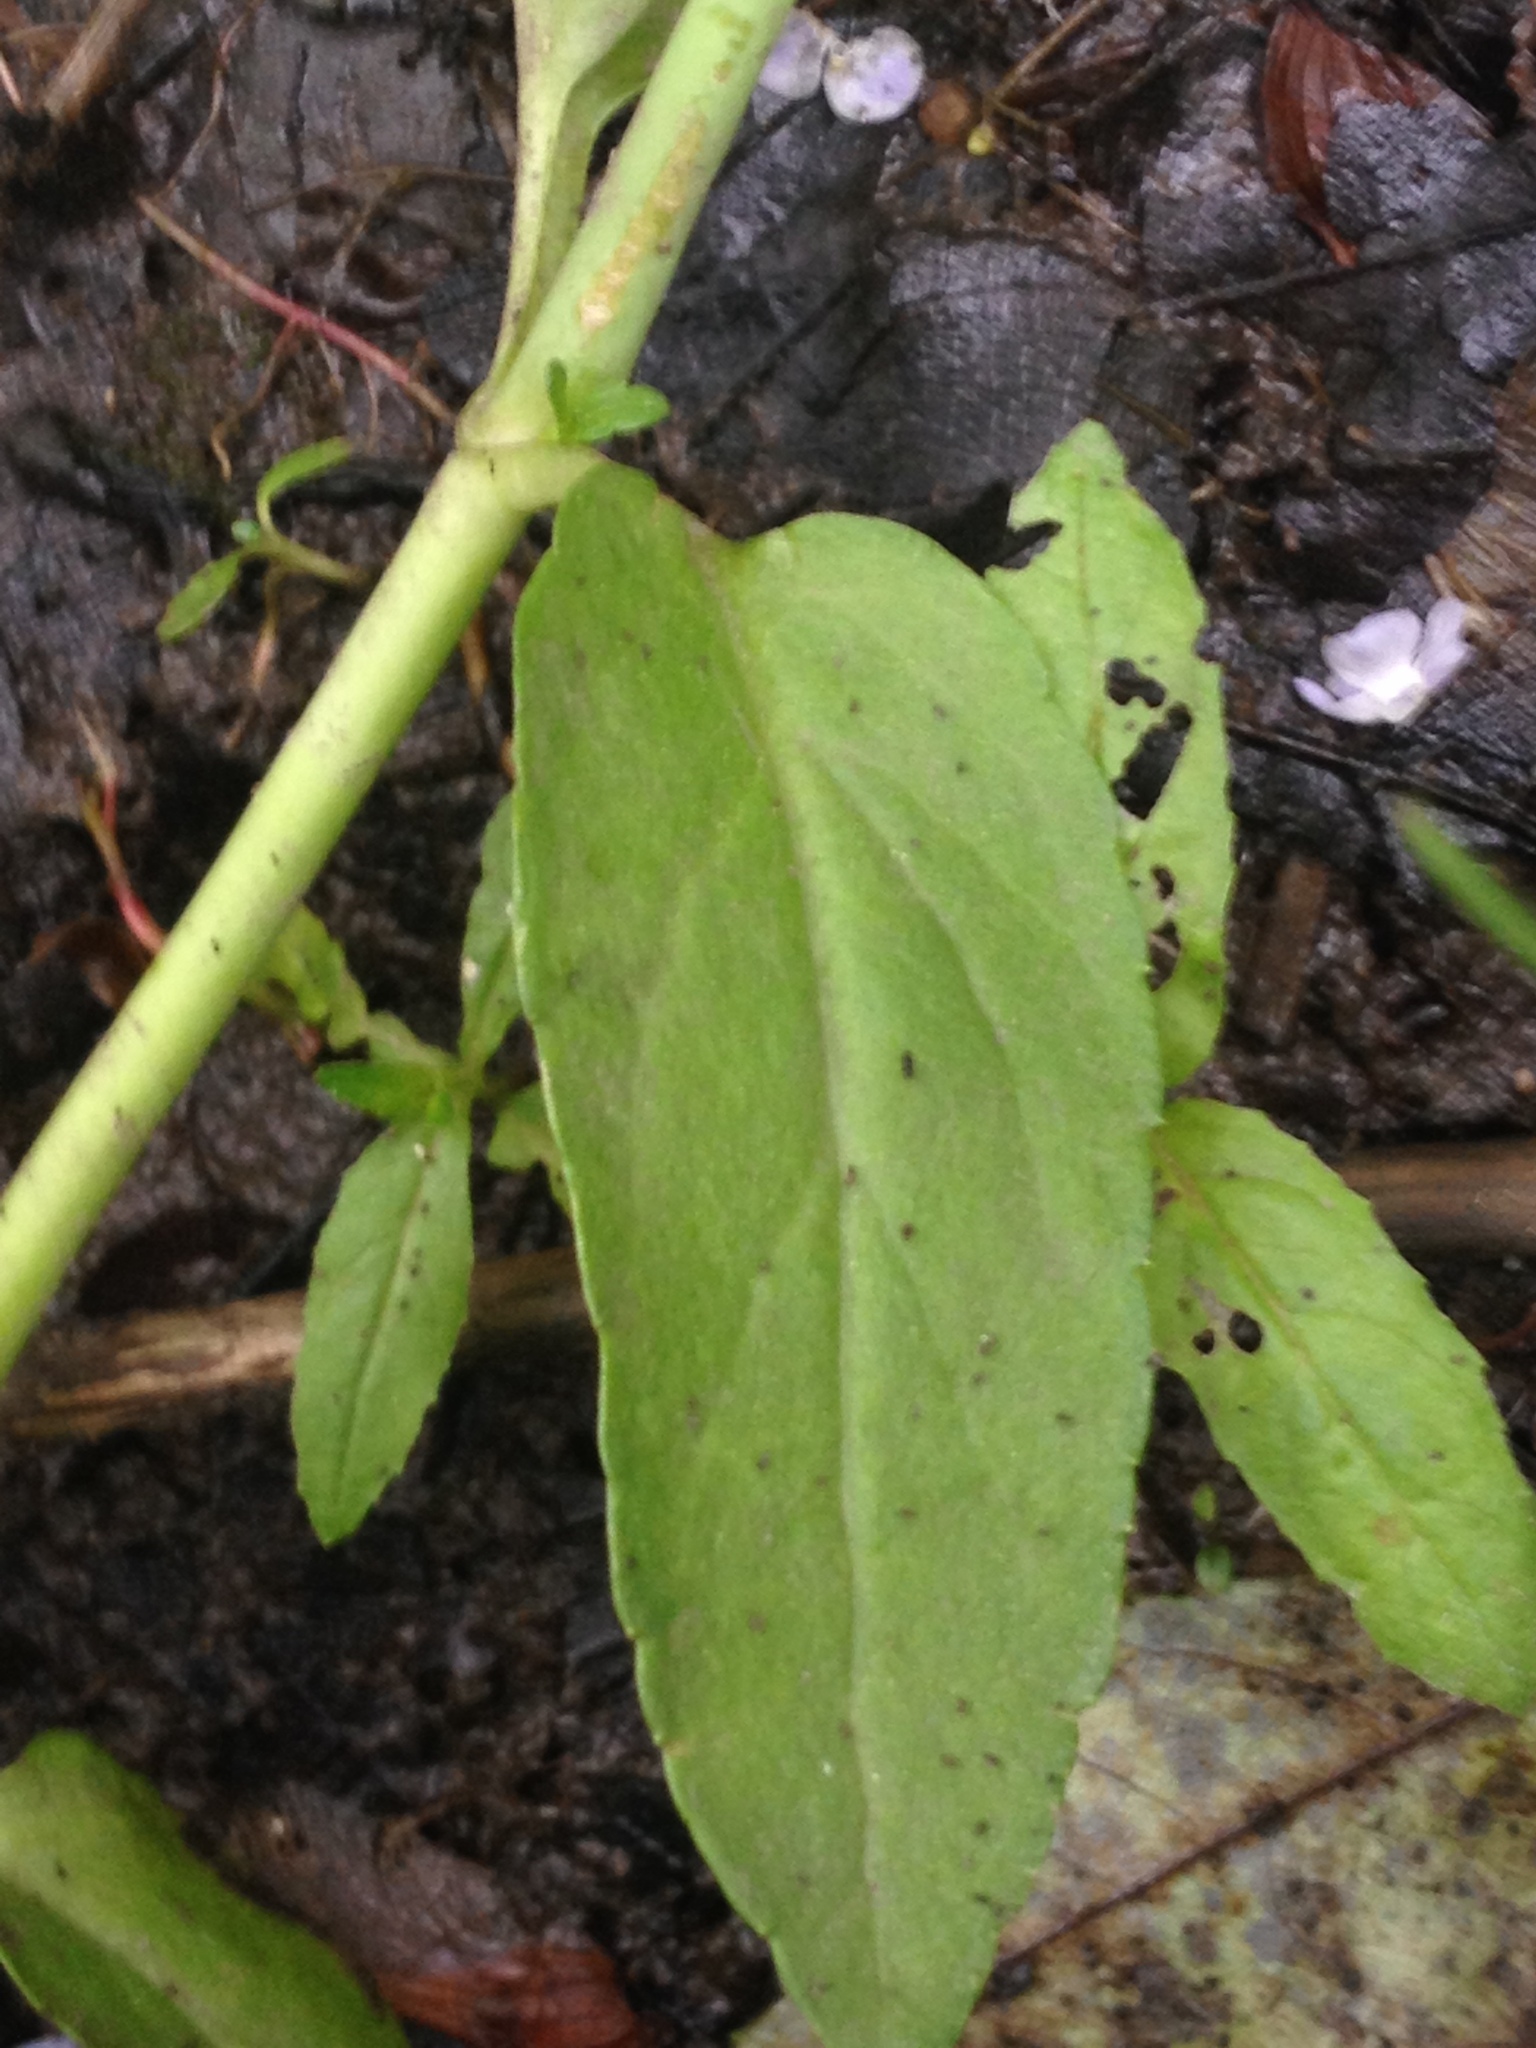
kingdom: Plantae
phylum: Tracheophyta
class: Magnoliopsida
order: Lamiales
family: Plantaginaceae
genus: Veronica
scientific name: Veronica americana
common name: American brooklime
